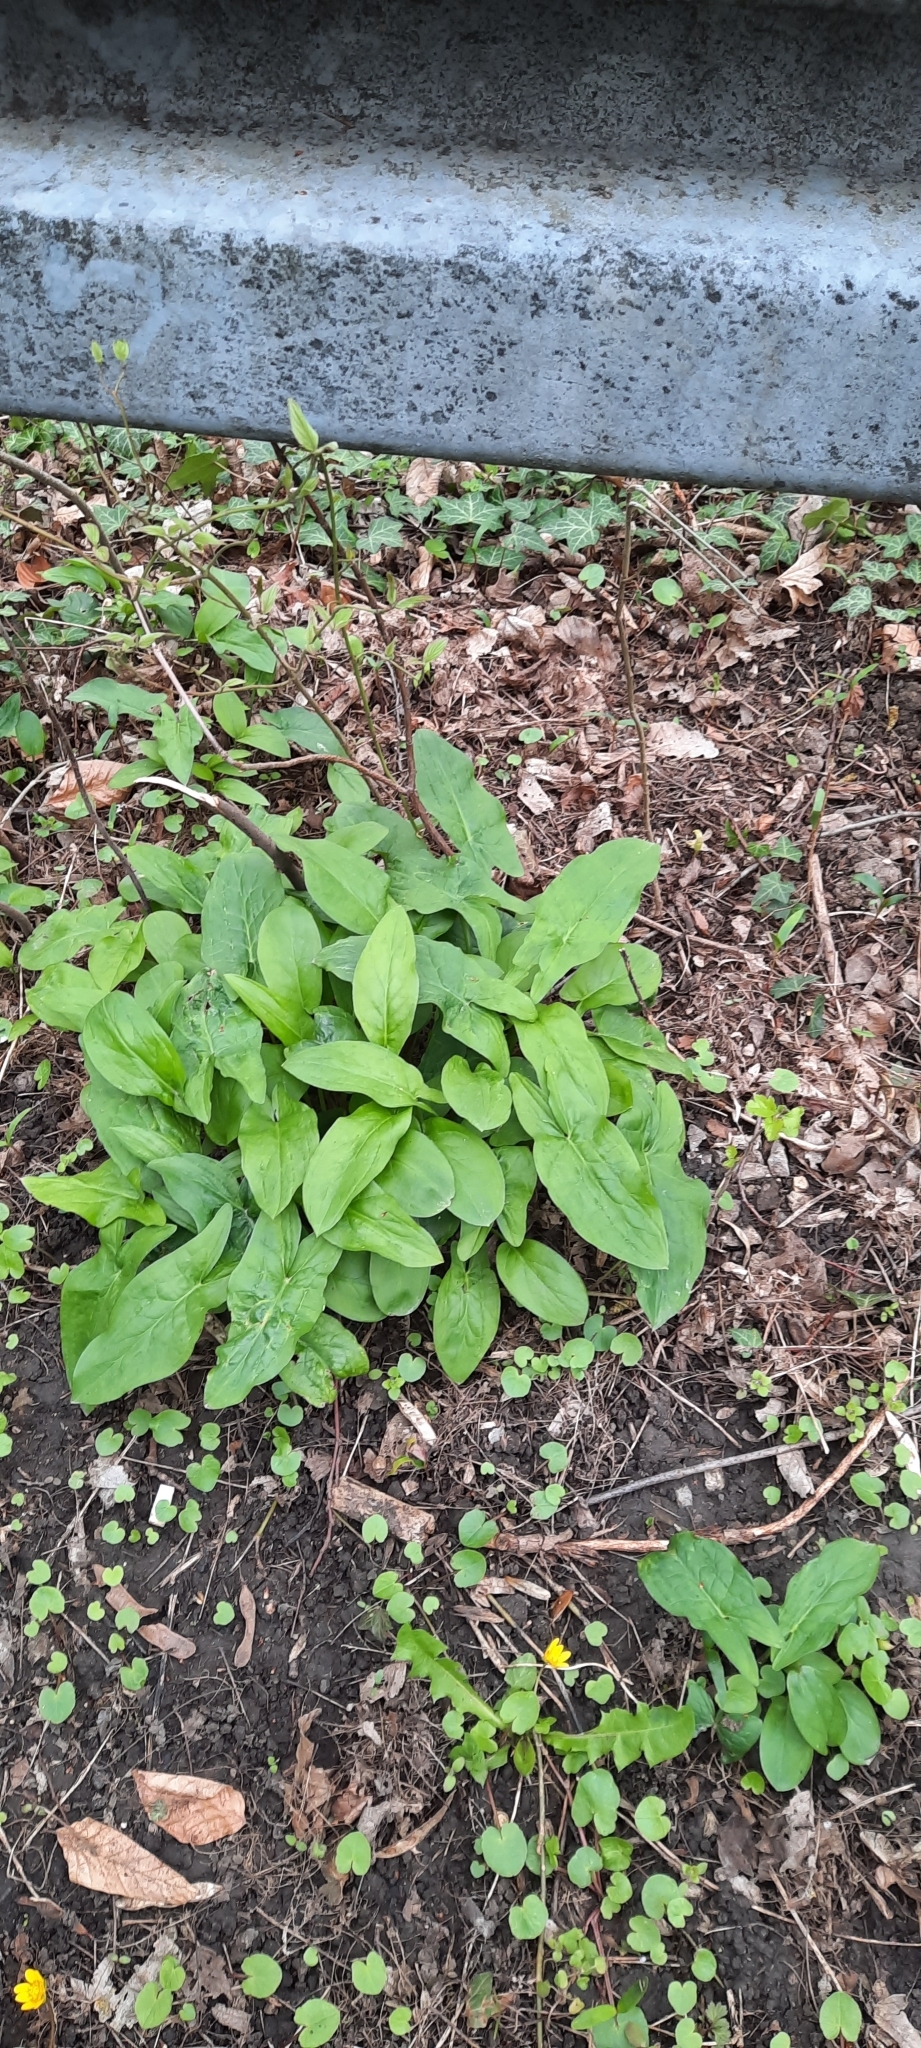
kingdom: Plantae
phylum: Tracheophyta
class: Liliopsida
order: Alismatales
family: Araceae
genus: Arum
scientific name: Arum maculatum
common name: Lords-and-ladies
